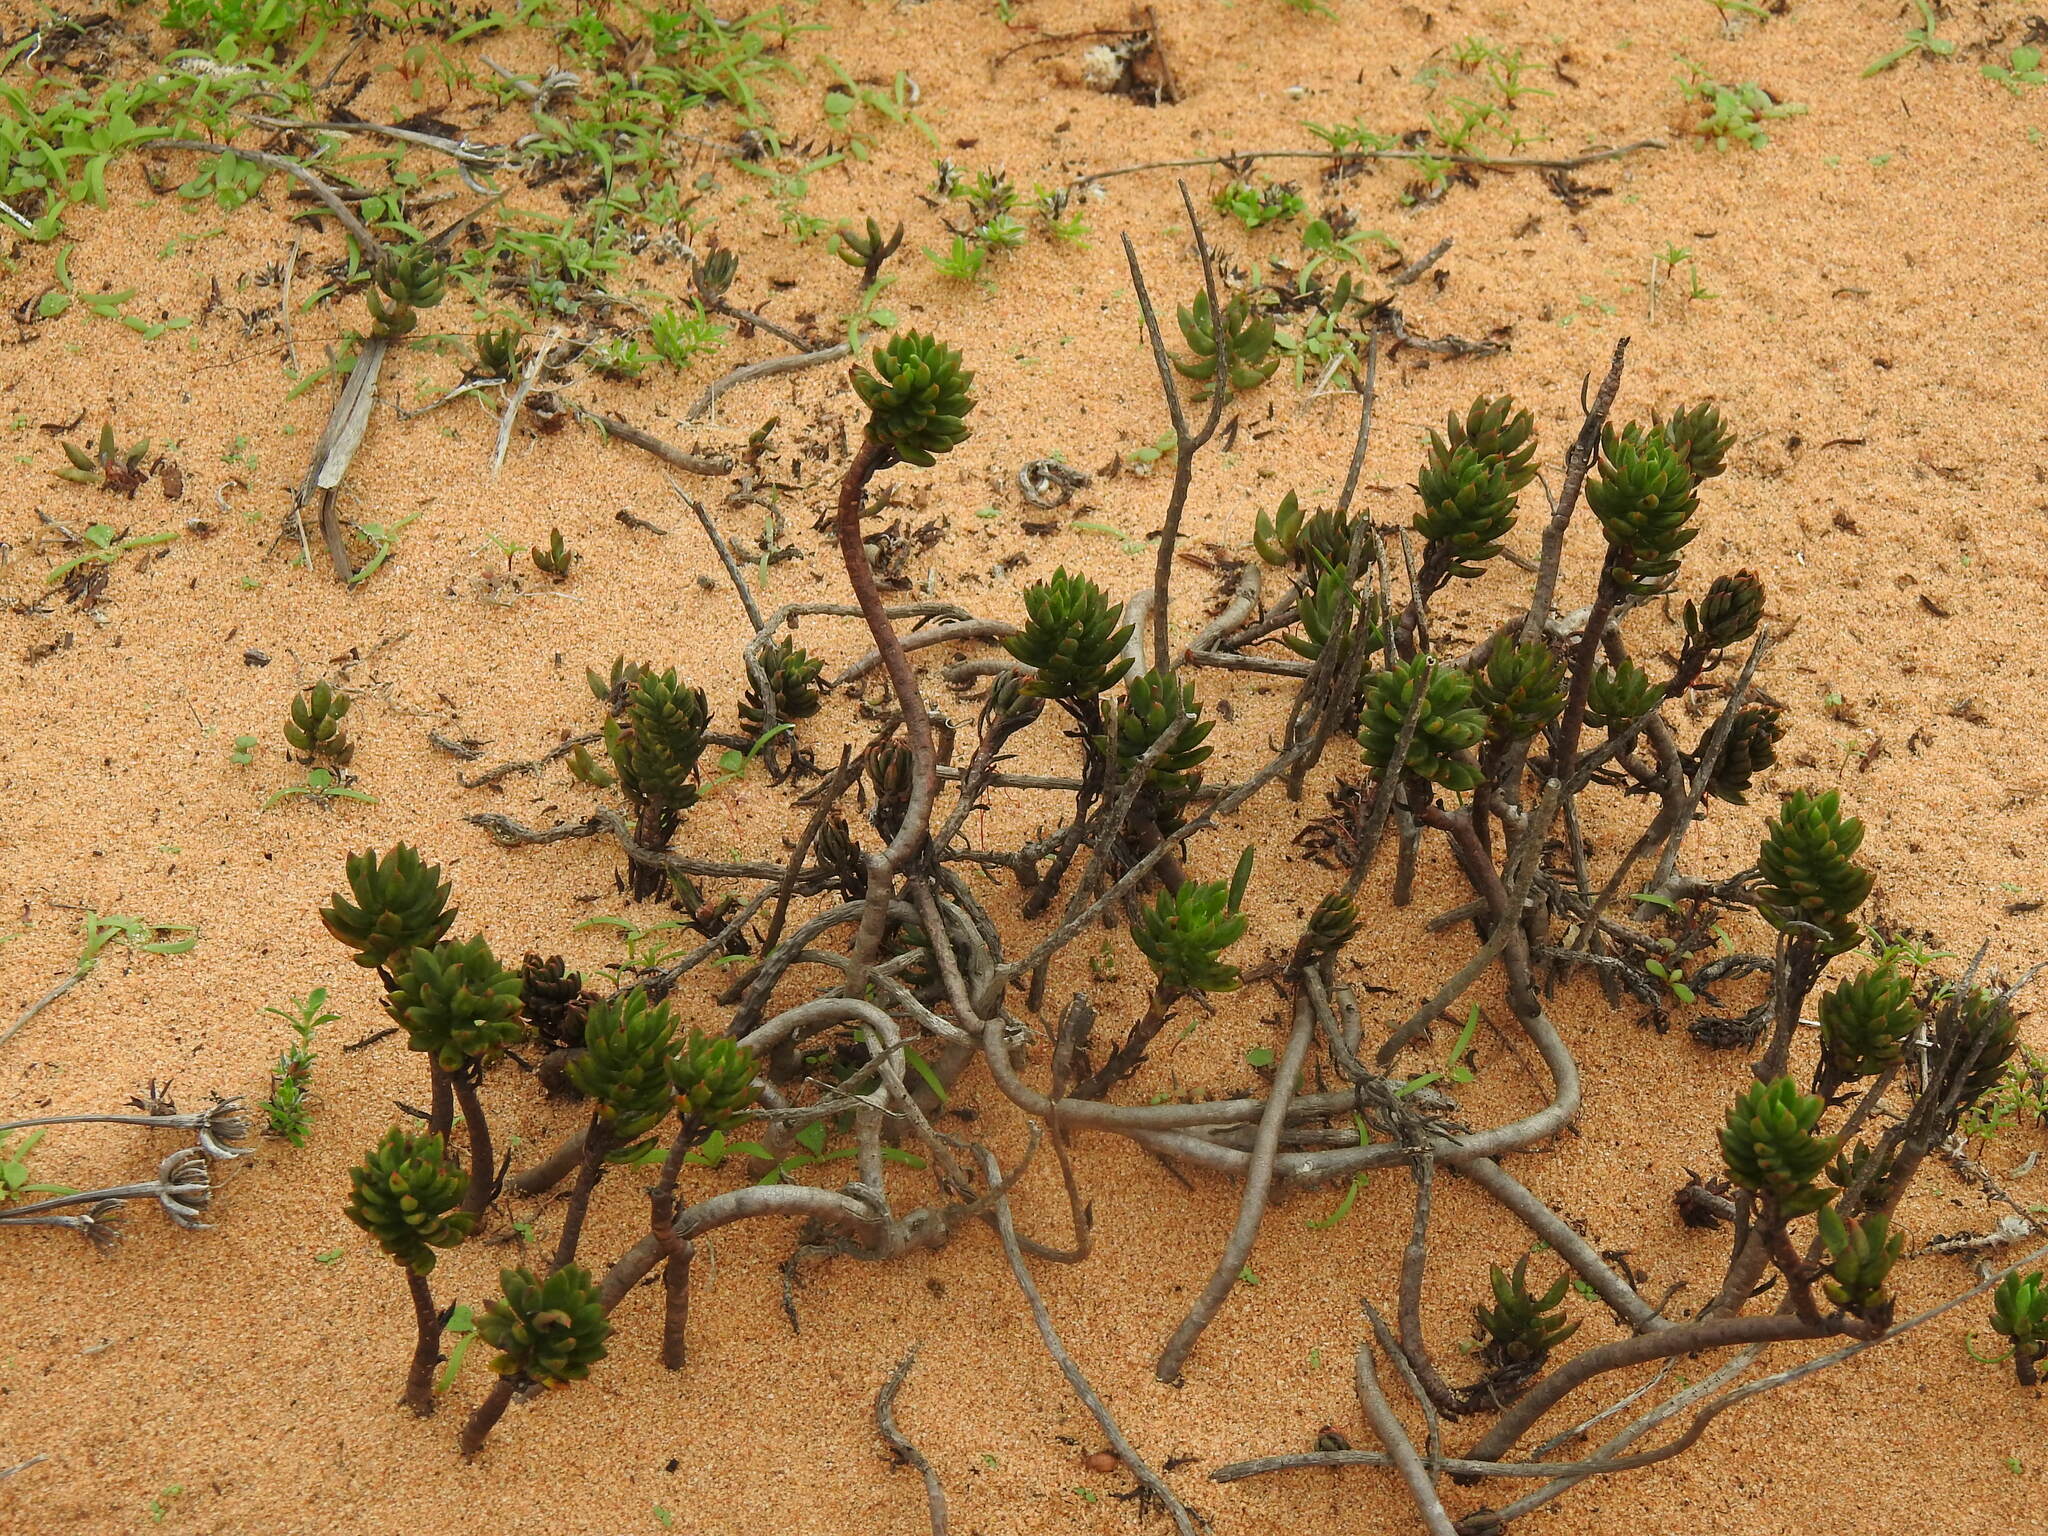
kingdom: Plantae
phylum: Tracheophyta
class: Magnoliopsida
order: Saxifragales
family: Crassulaceae
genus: Petrosedum
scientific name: Petrosedum sediforme
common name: Pale stonecrop
